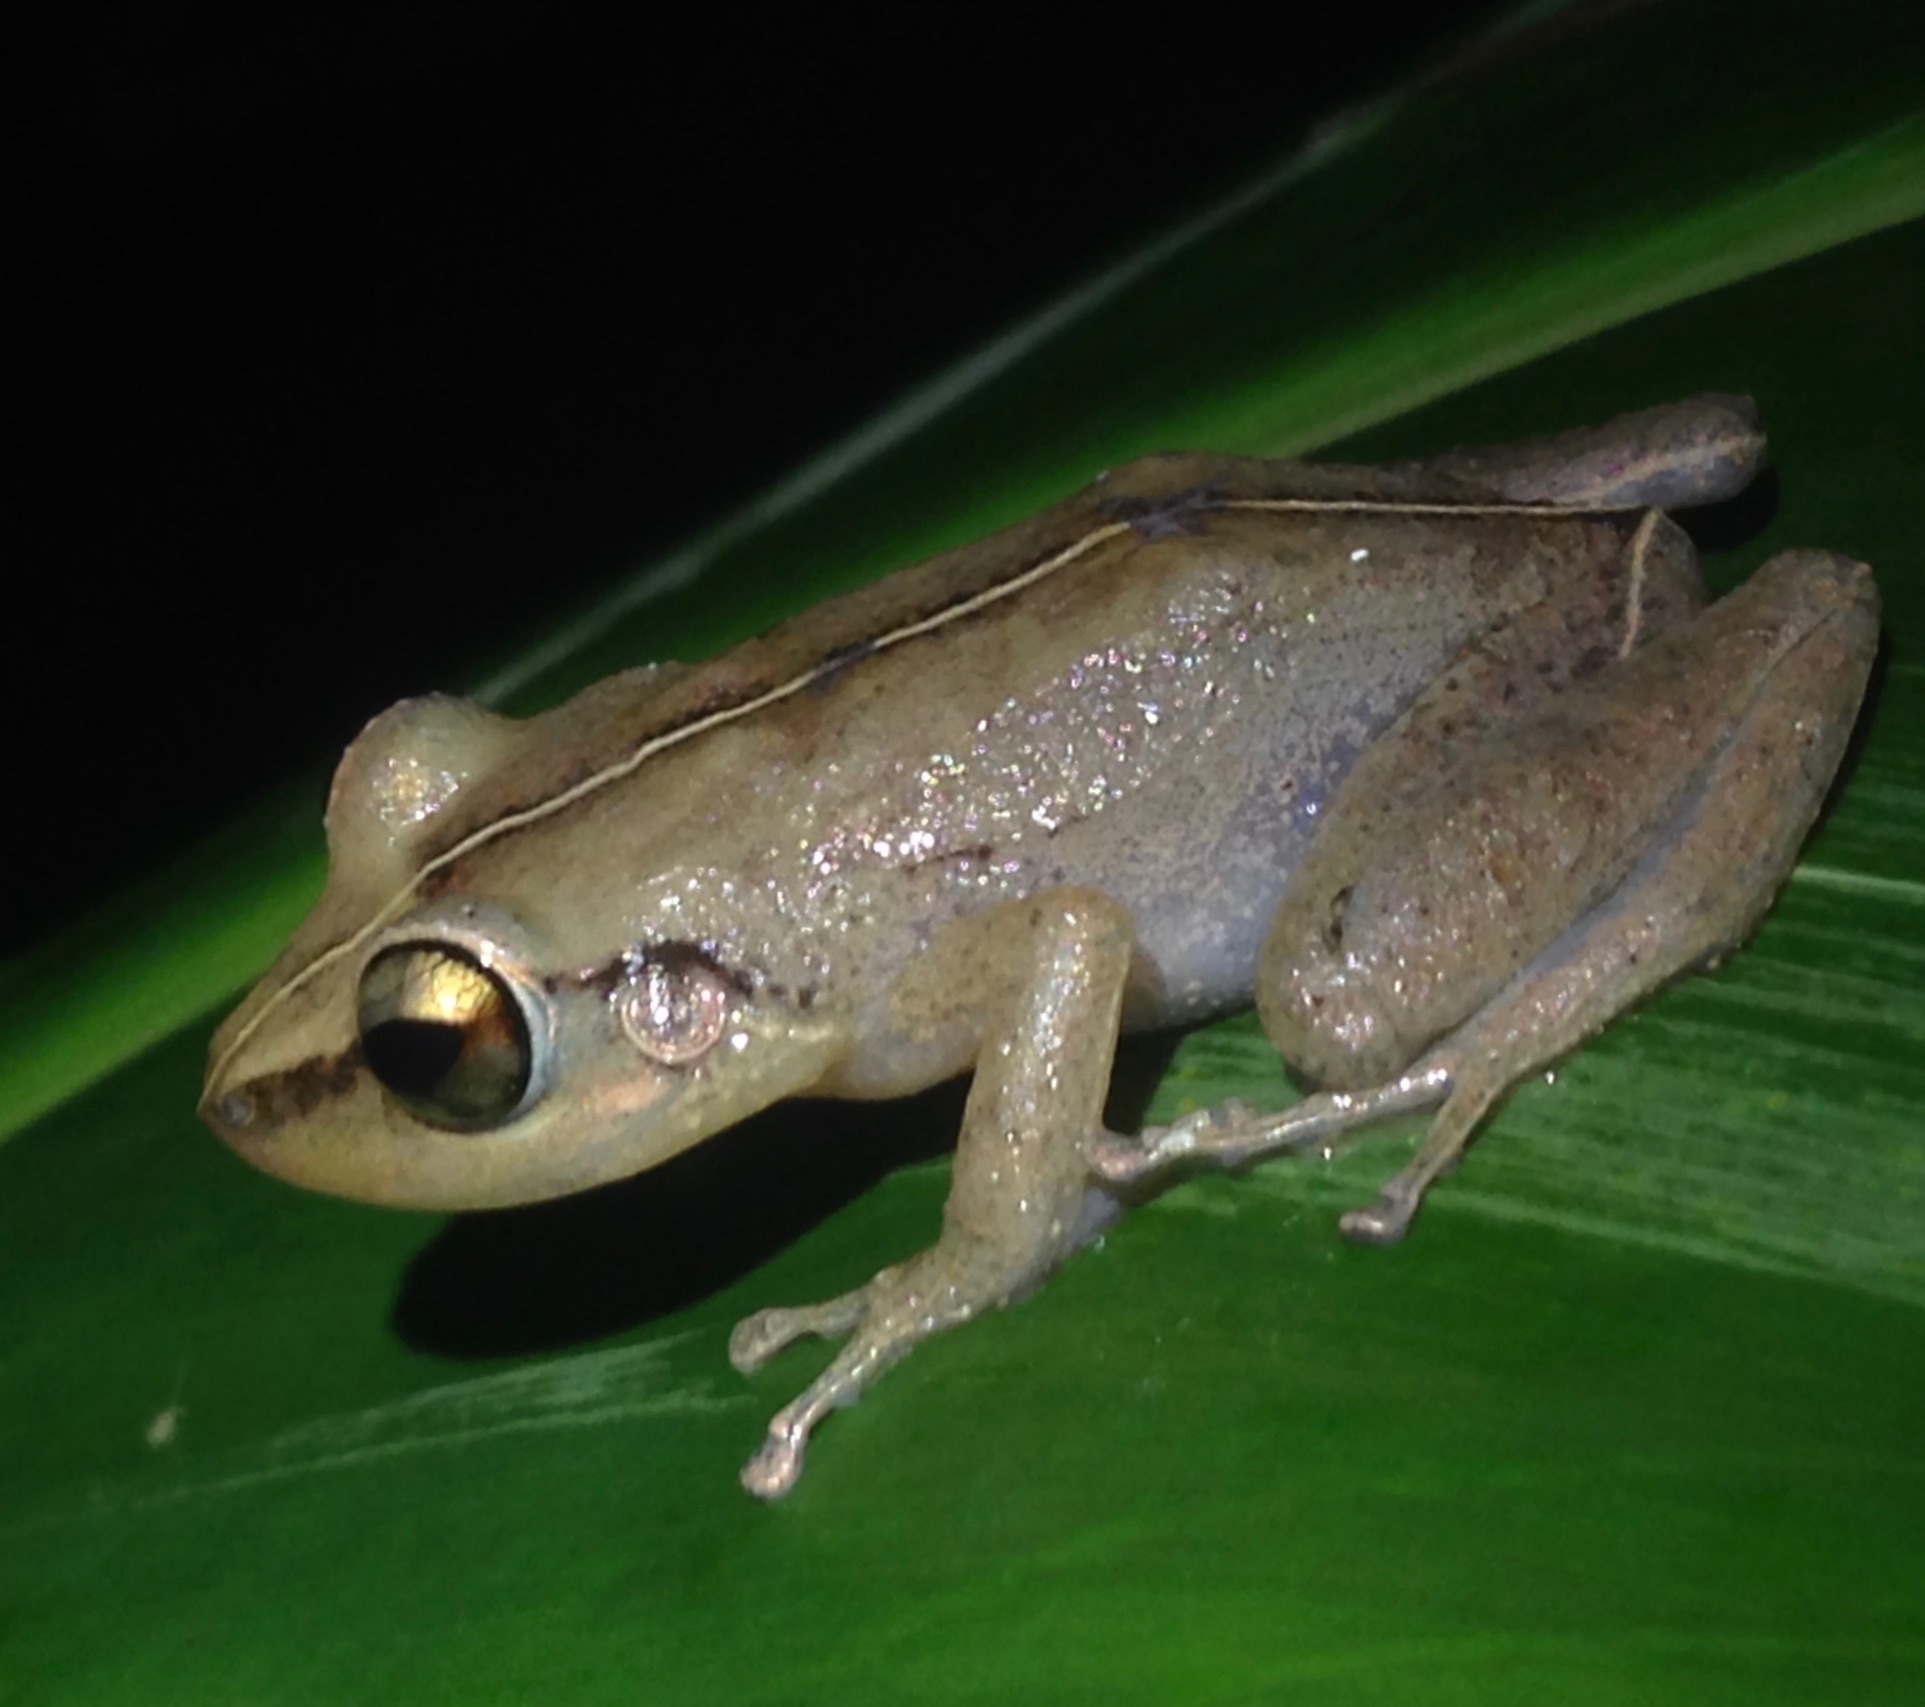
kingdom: Animalia
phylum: Chordata
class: Amphibia
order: Anura
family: Eleutherodactylidae
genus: Eleutherodactylus
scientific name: Eleutherodactylus coqui
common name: Coqui frog
